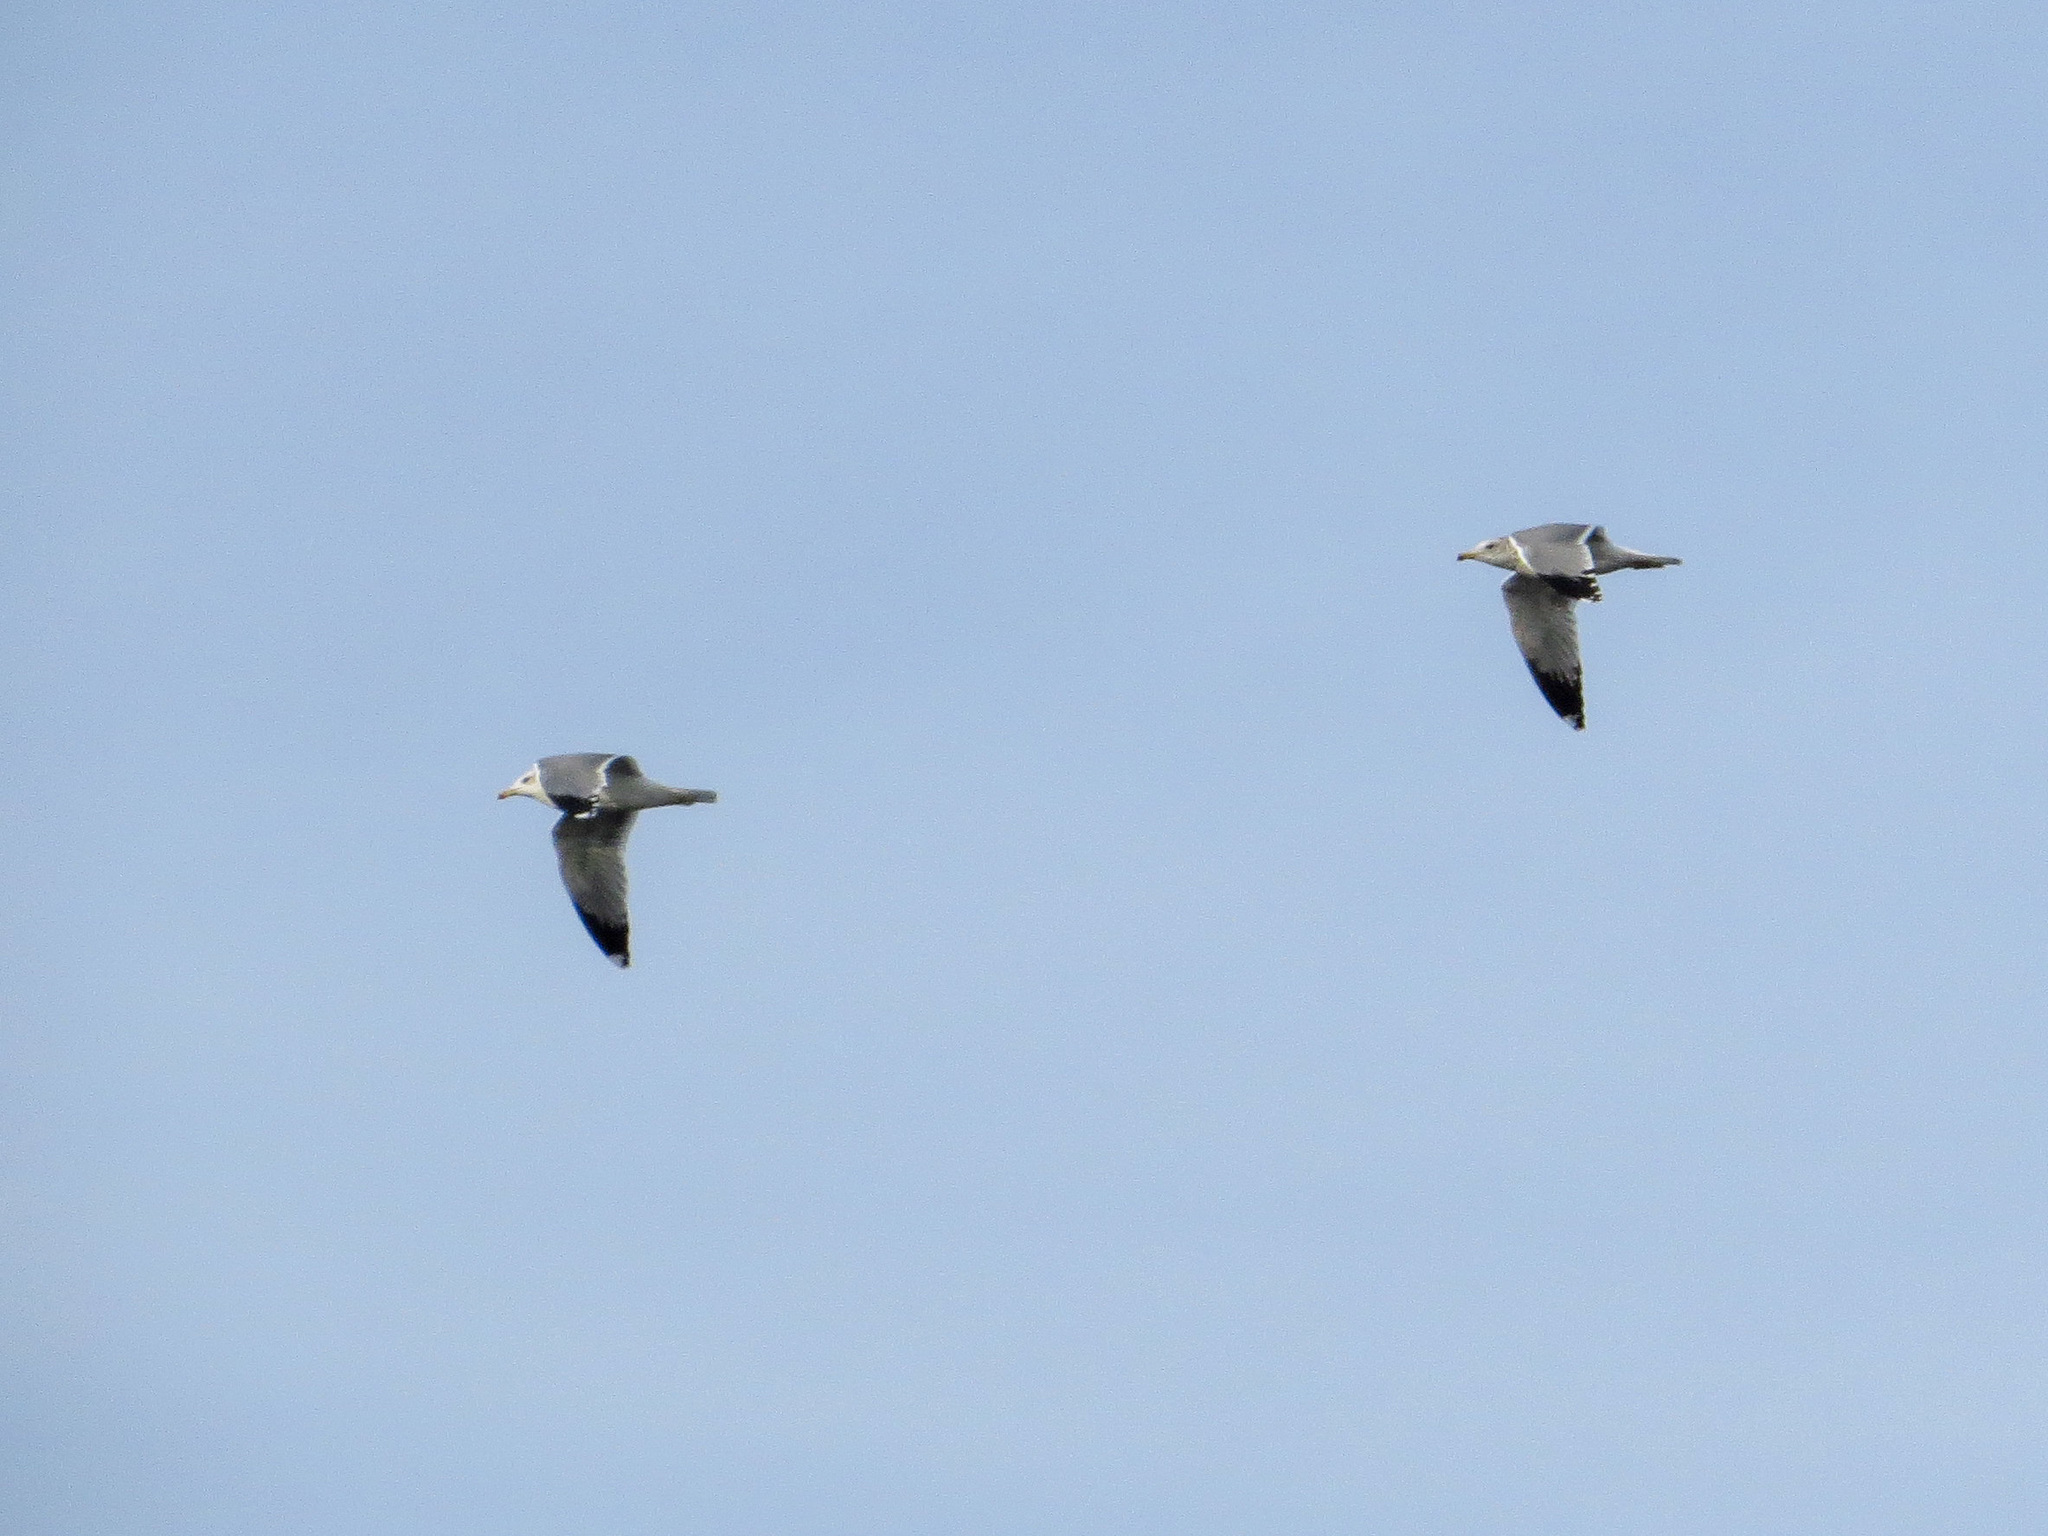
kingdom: Animalia
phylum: Chordata
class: Aves
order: Charadriiformes
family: Laridae
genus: Larus
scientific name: Larus californicus
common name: California gull
